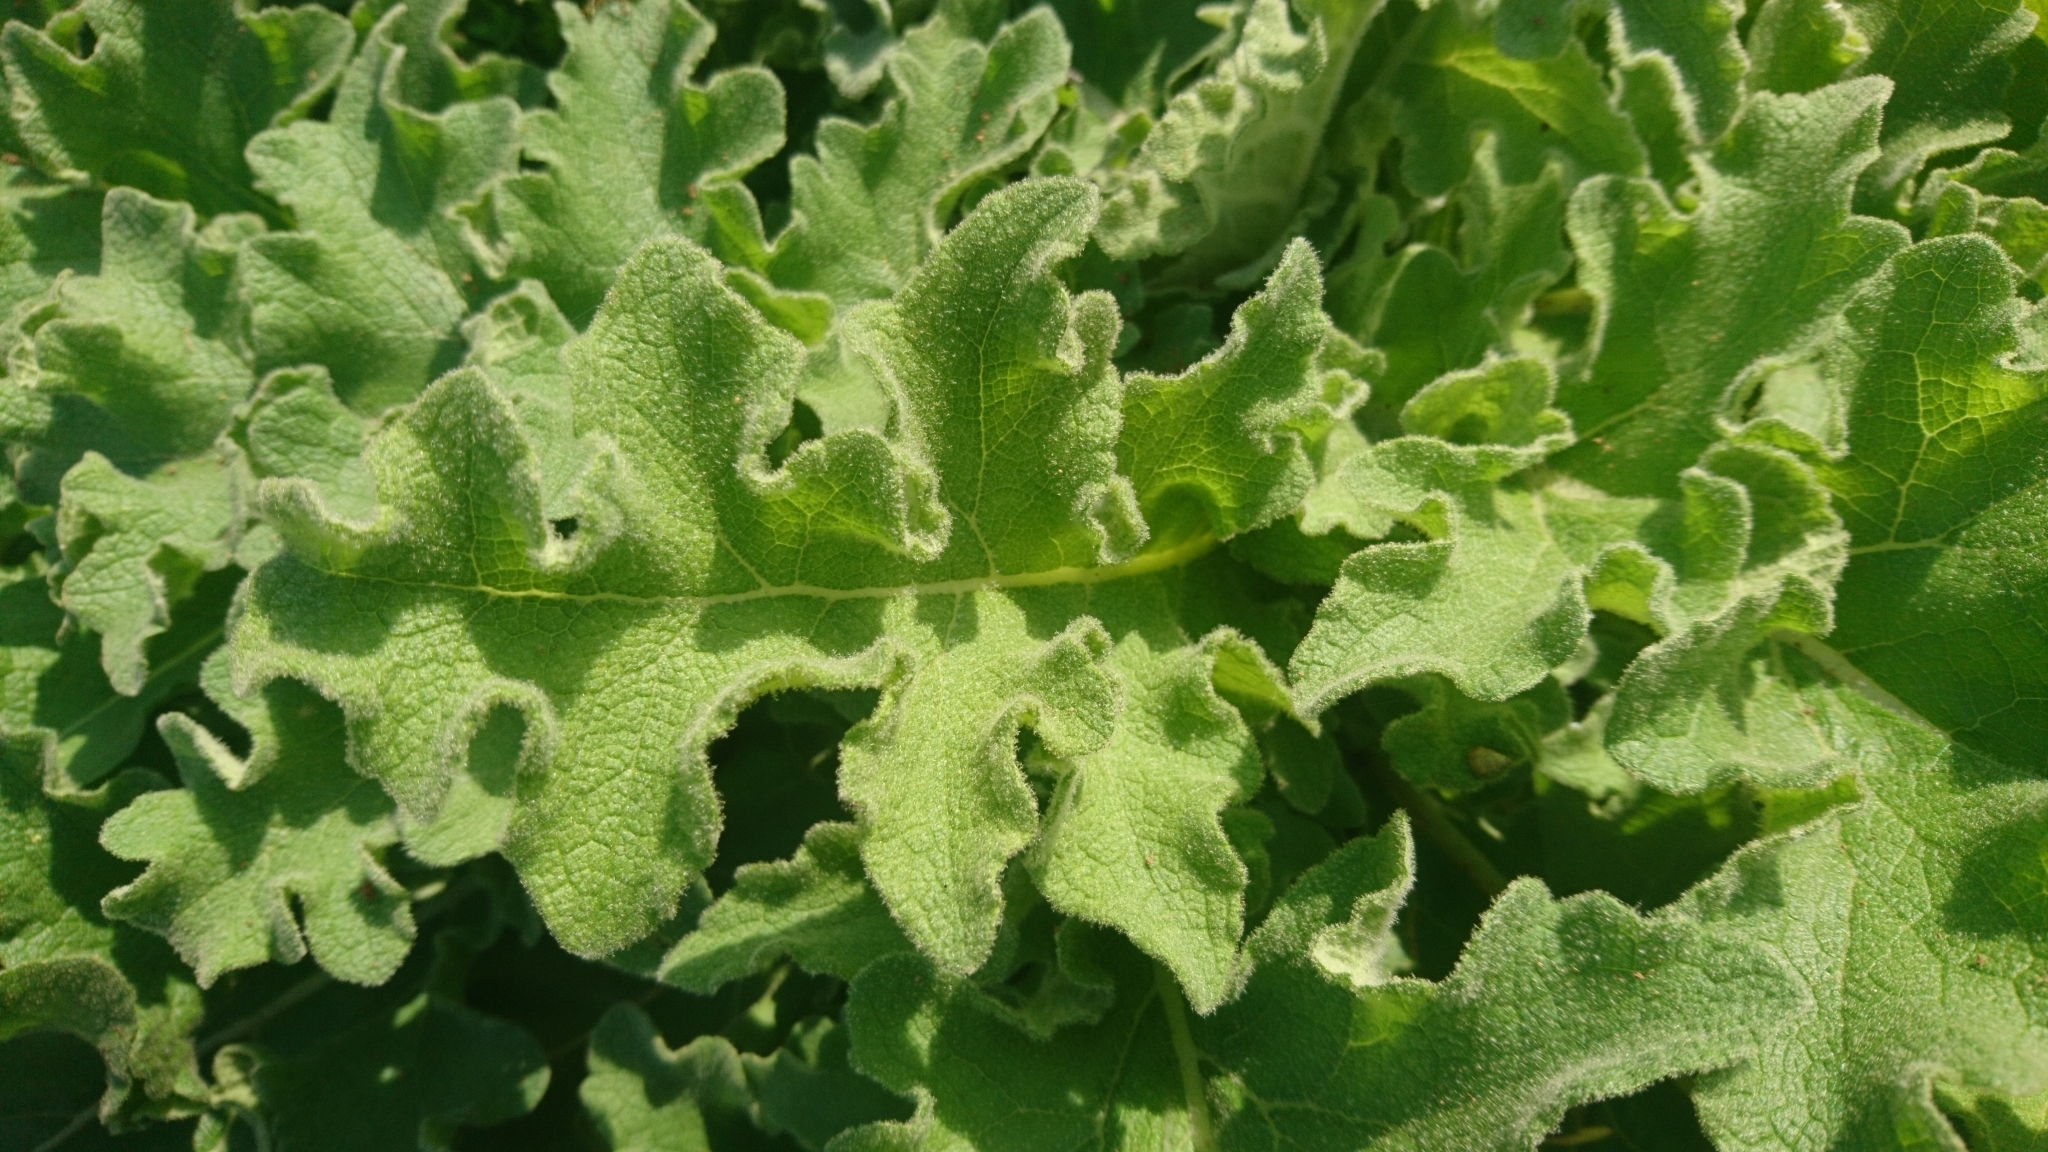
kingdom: Plantae
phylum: Tracheophyta
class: Magnoliopsida
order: Lamiales
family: Scrophulariaceae
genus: Verbascum
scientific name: Verbascum sinuatum
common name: Wavyleaf mullein
